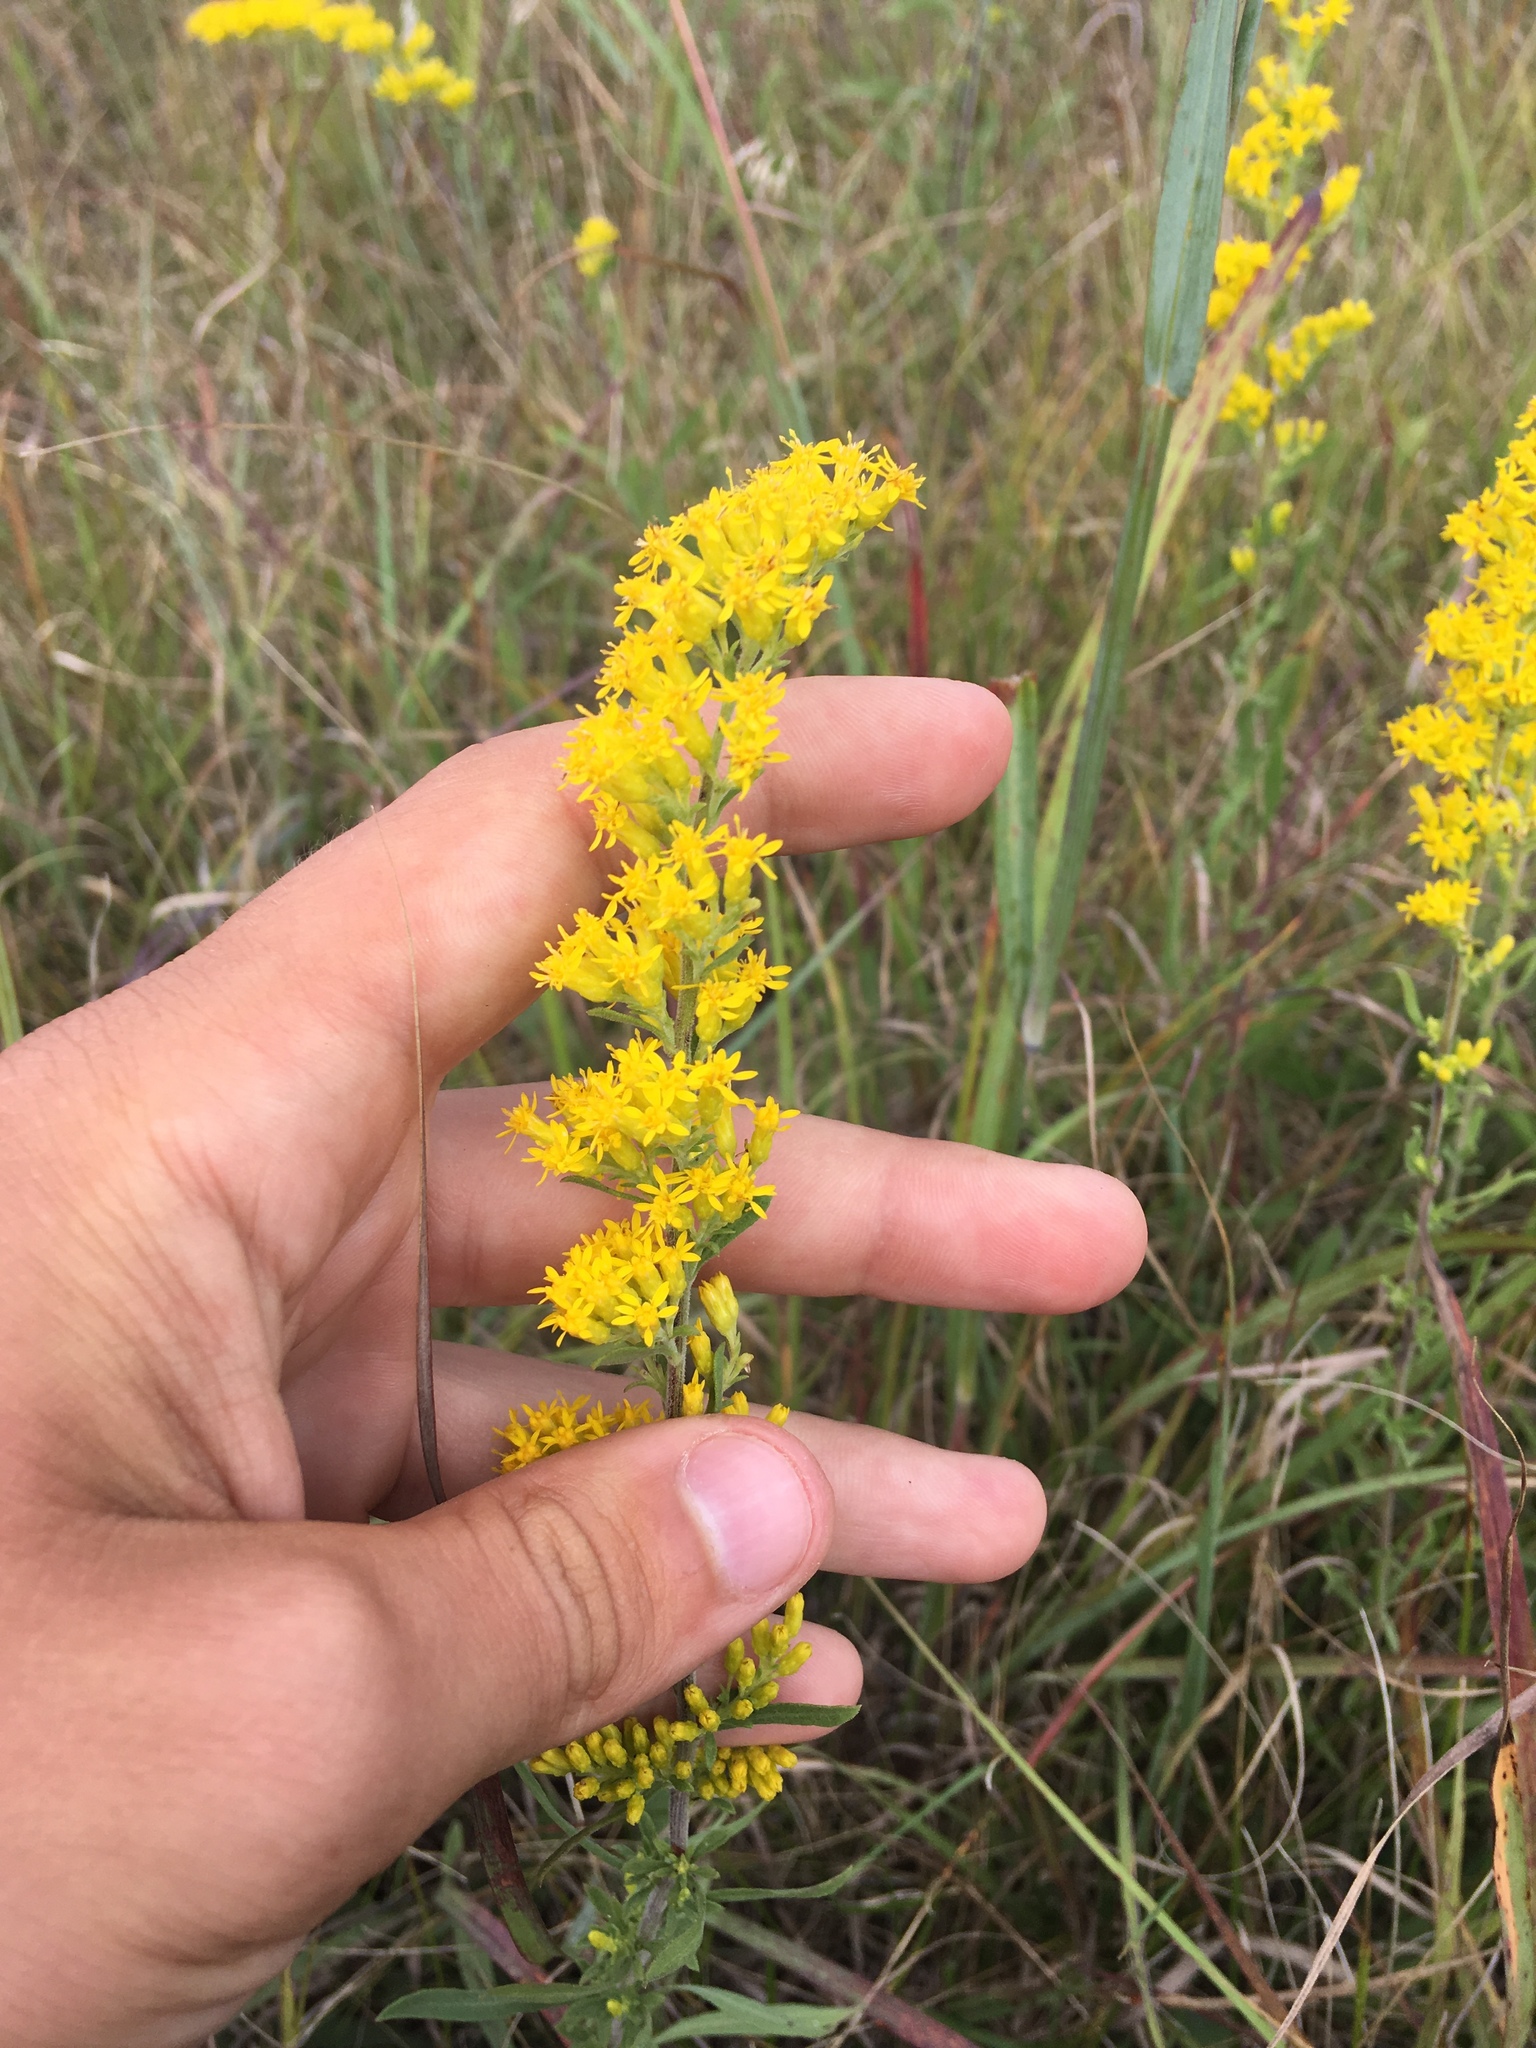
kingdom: Plantae
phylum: Tracheophyta
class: Magnoliopsida
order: Asterales
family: Asteraceae
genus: Solidago
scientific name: Solidago nemoralis
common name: Grey goldenrod
